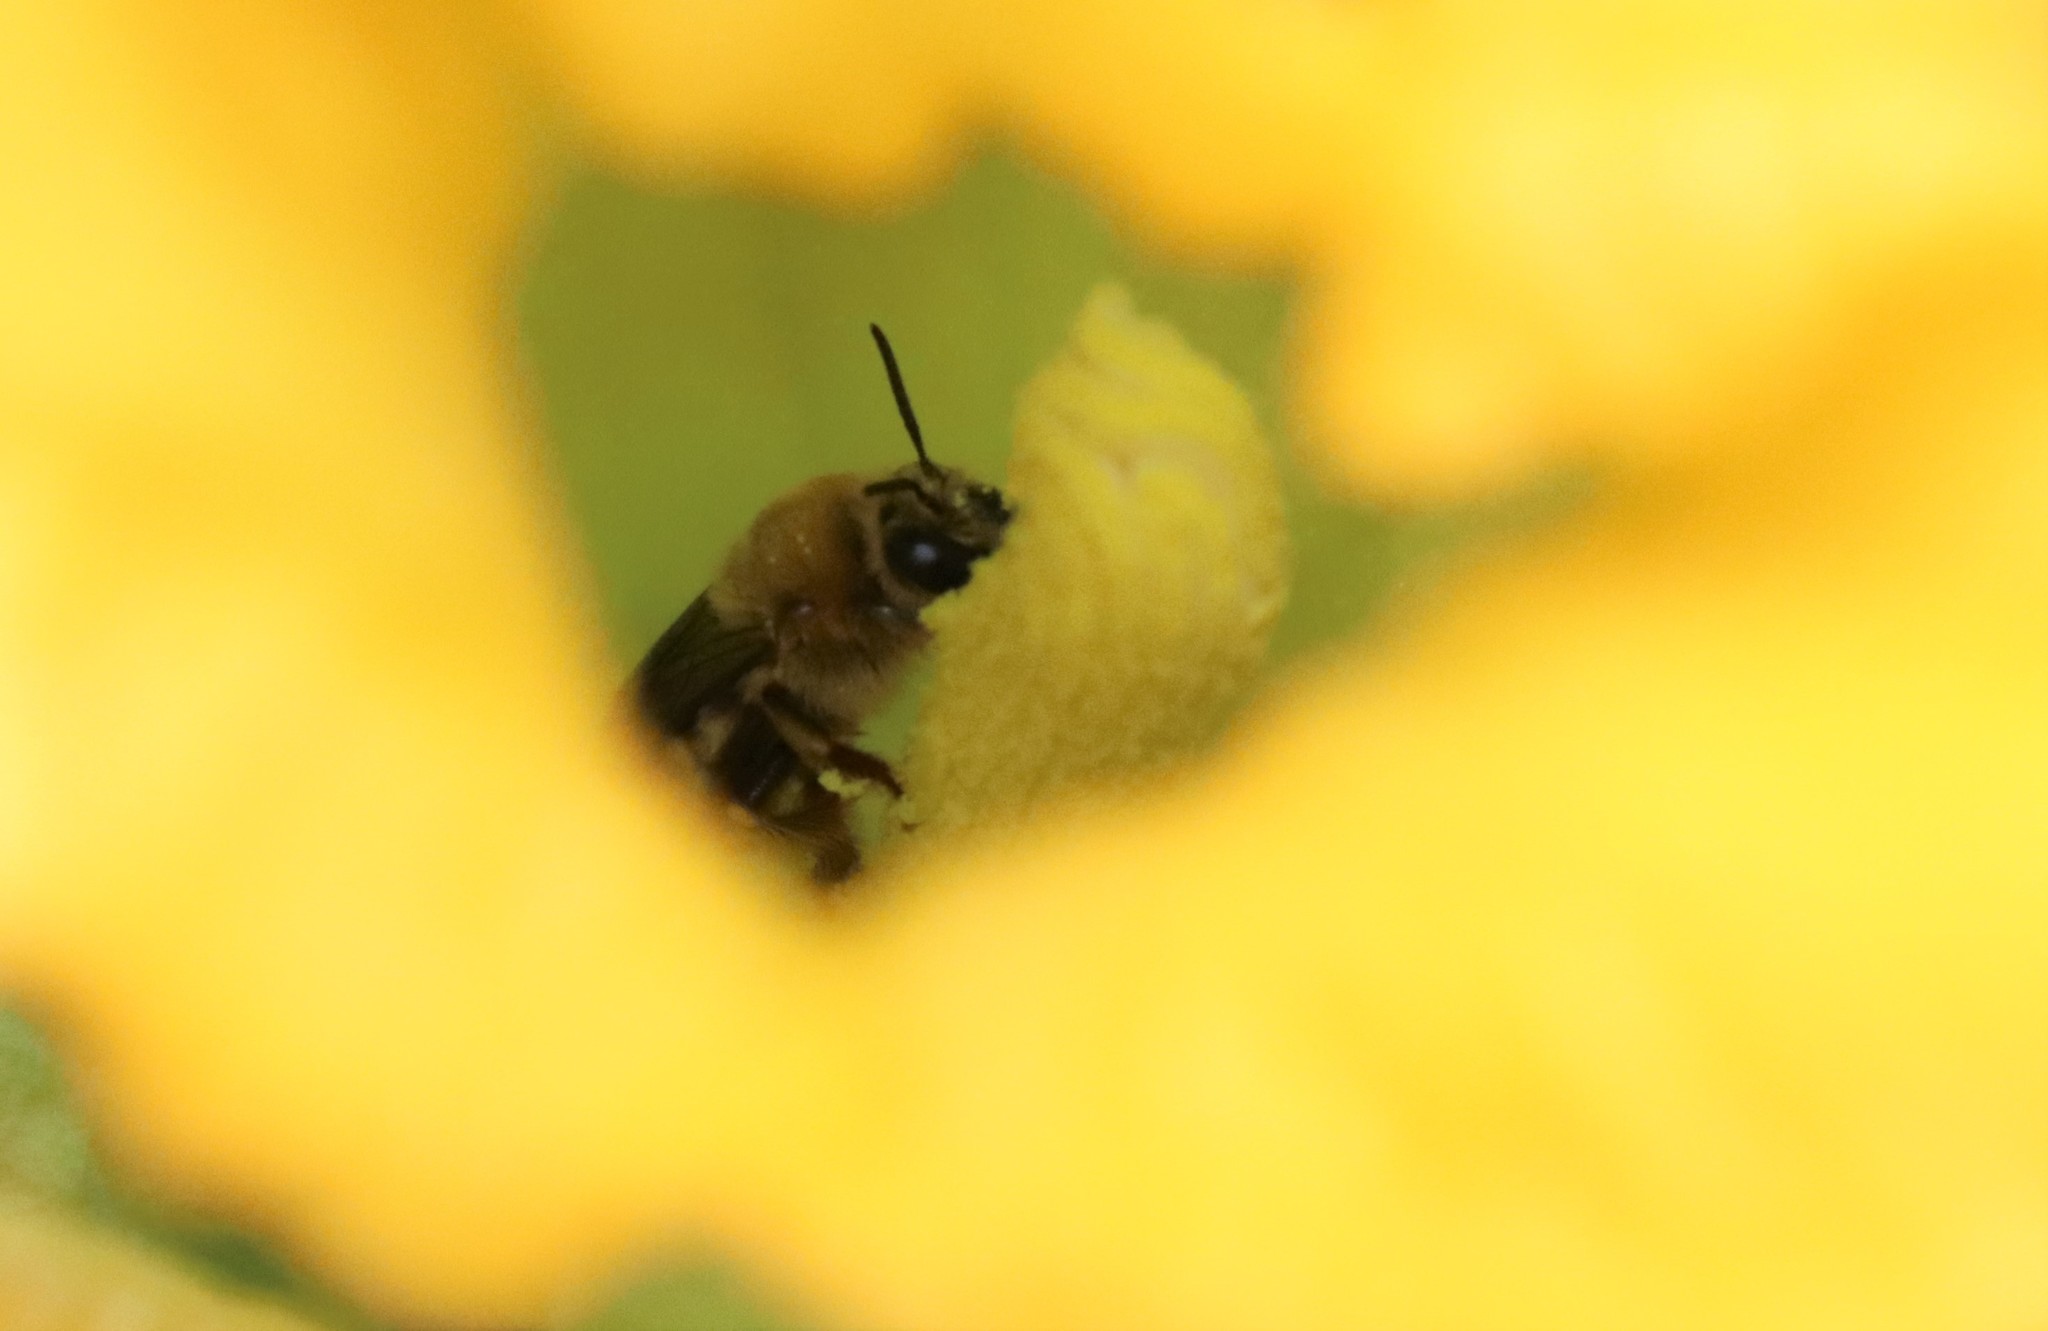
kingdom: Animalia
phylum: Arthropoda
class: Insecta
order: Hymenoptera
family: Apidae
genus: Peponapis
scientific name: Peponapis pruinosa
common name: Pruinose squash bee
